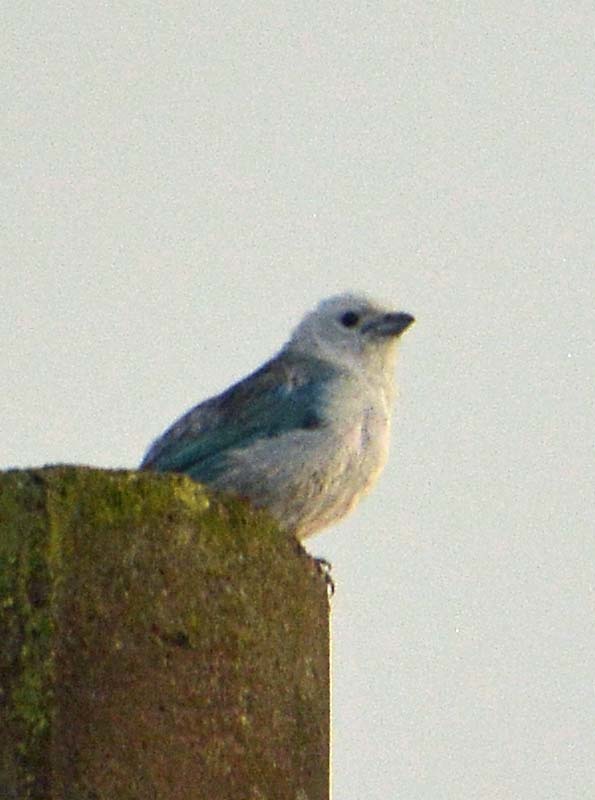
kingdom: Animalia
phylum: Chordata
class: Aves
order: Passeriformes
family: Thraupidae
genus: Thraupis
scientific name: Thraupis episcopus
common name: Blue-grey tanager
